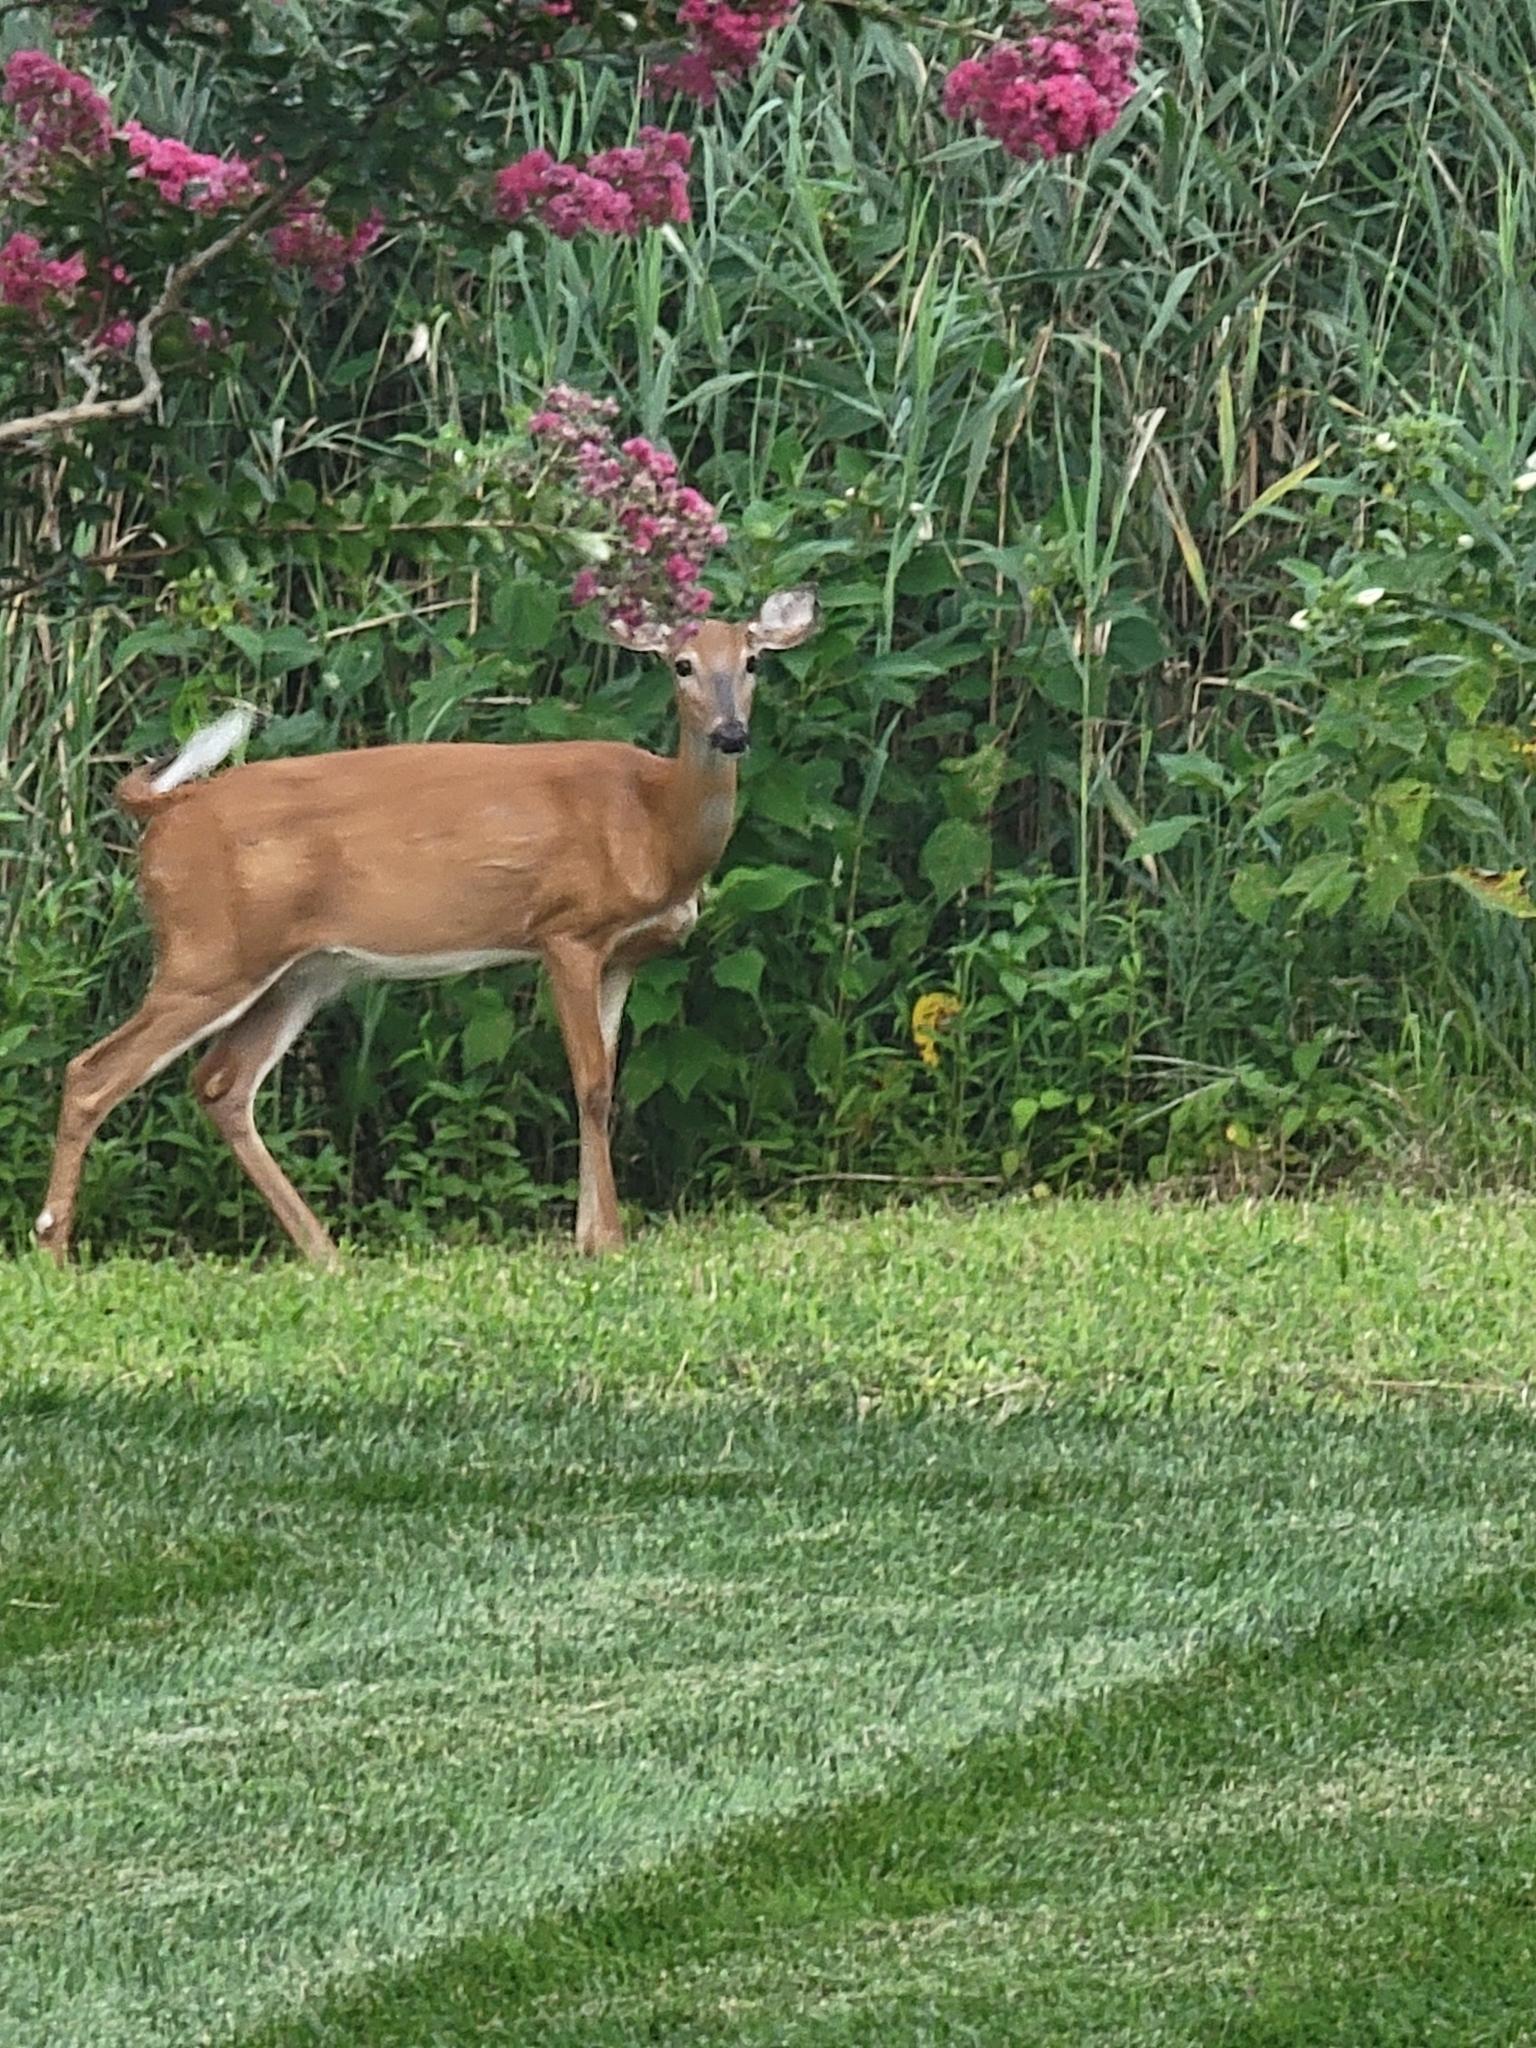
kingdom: Animalia
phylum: Chordata
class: Mammalia
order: Artiodactyla
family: Cervidae
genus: Odocoileus
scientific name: Odocoileus virginianus
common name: White-tailed deer
